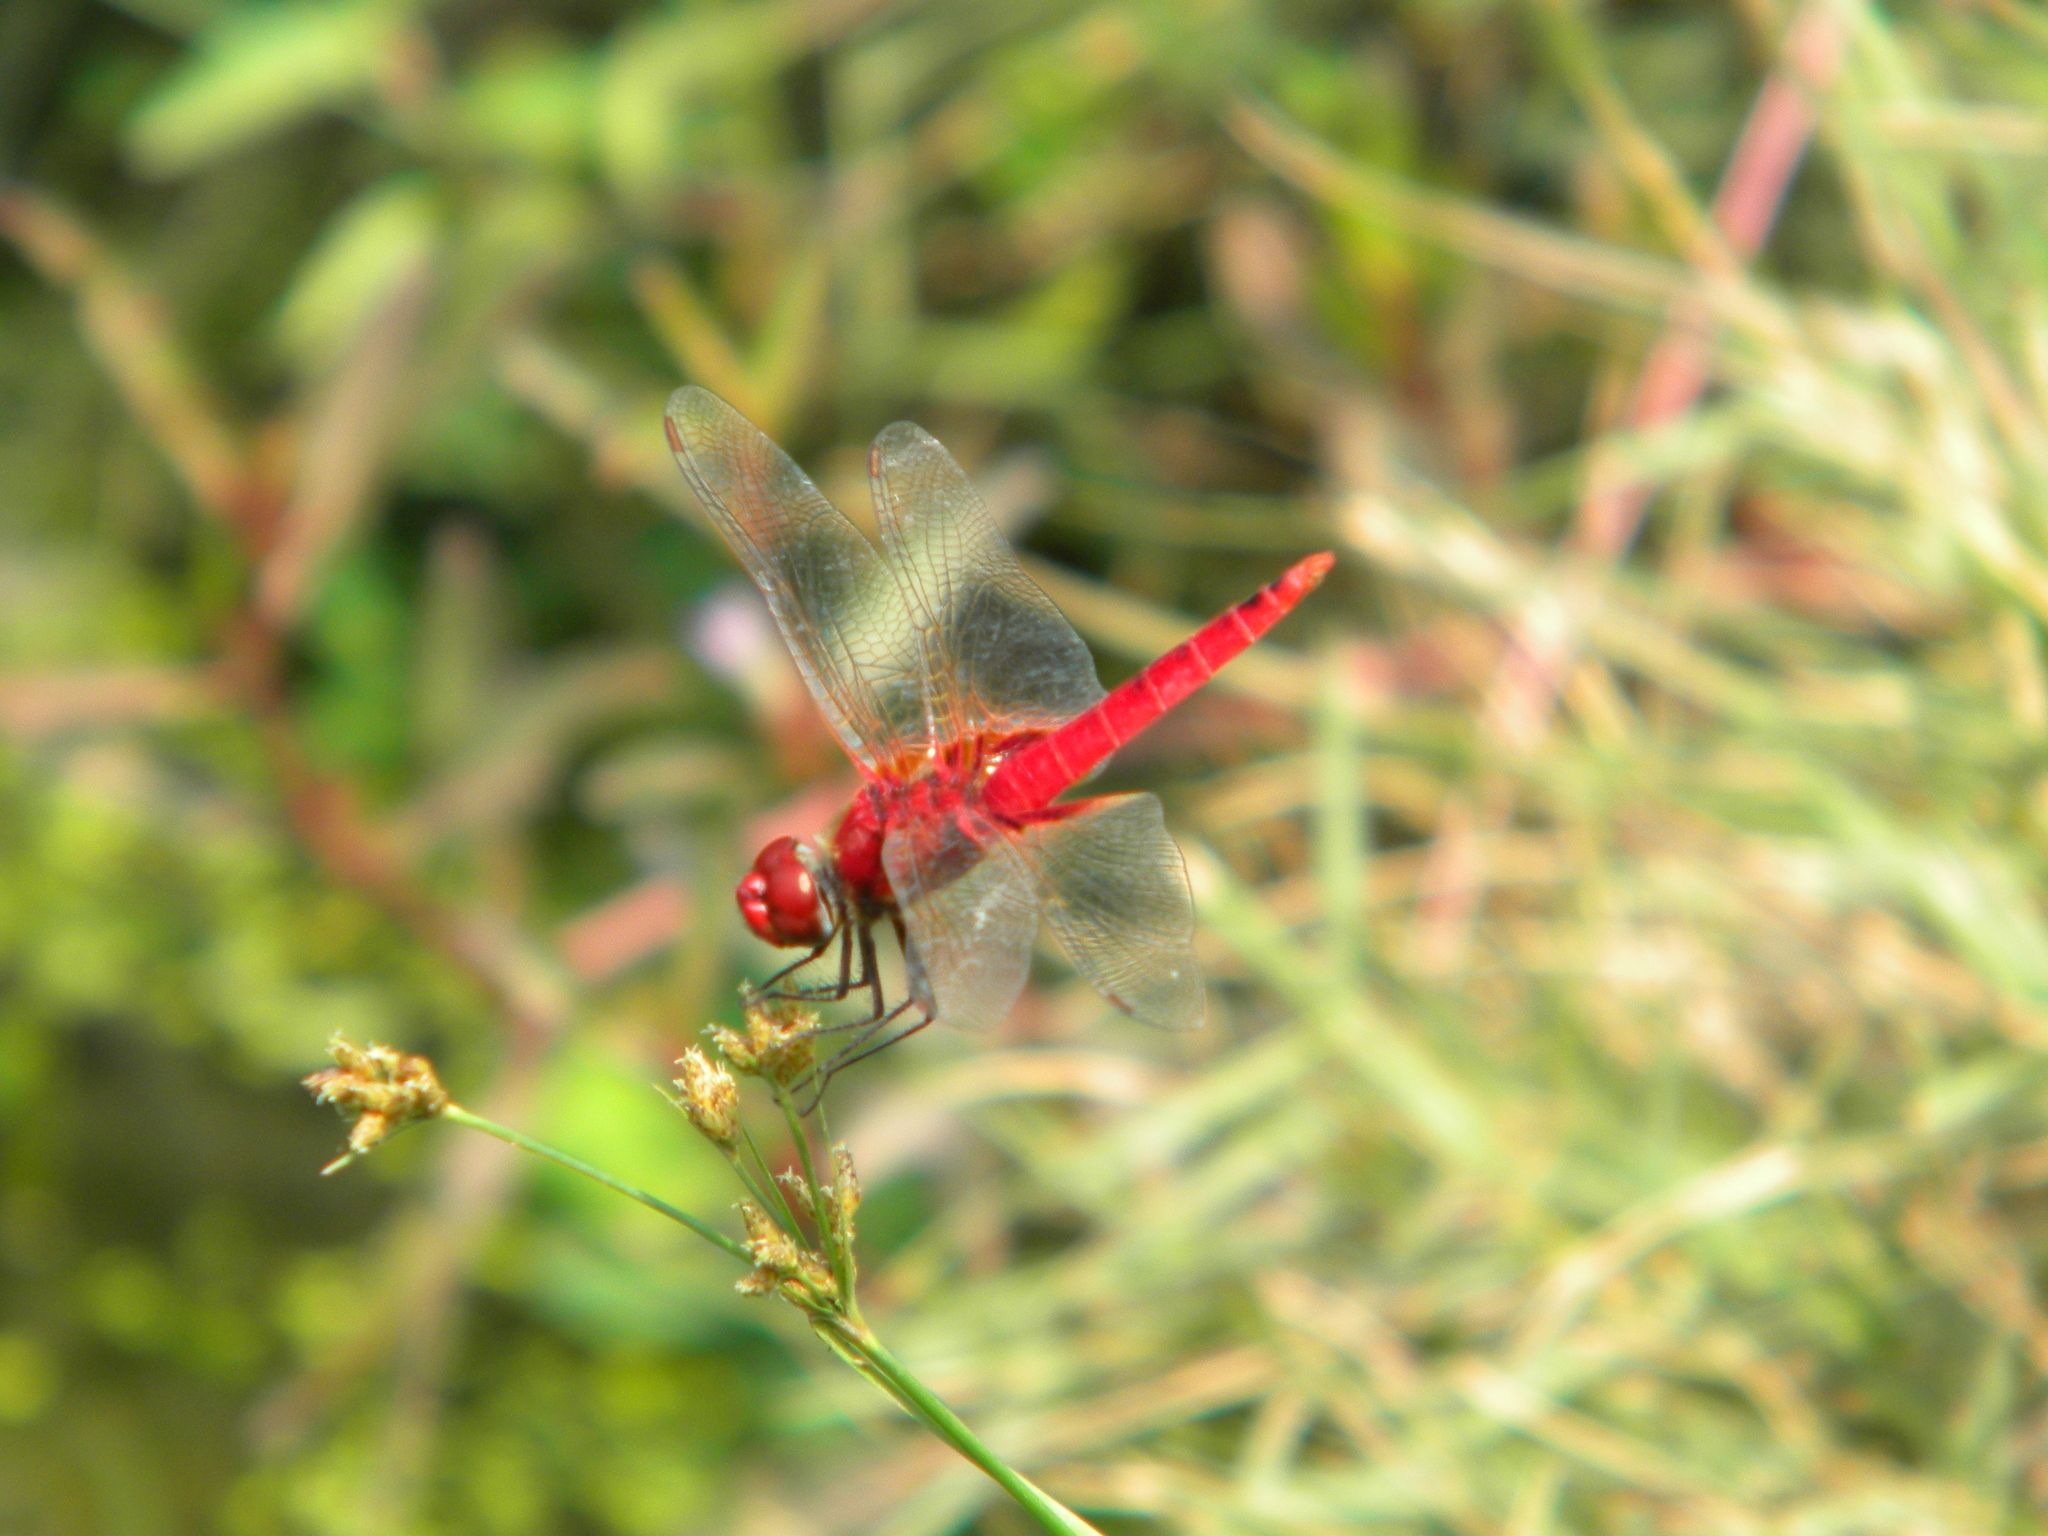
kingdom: Animalia
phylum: Arthropoda
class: Insecta
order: Odonata
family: Libellulidae
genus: Urothemis
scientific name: Urothemis signata
